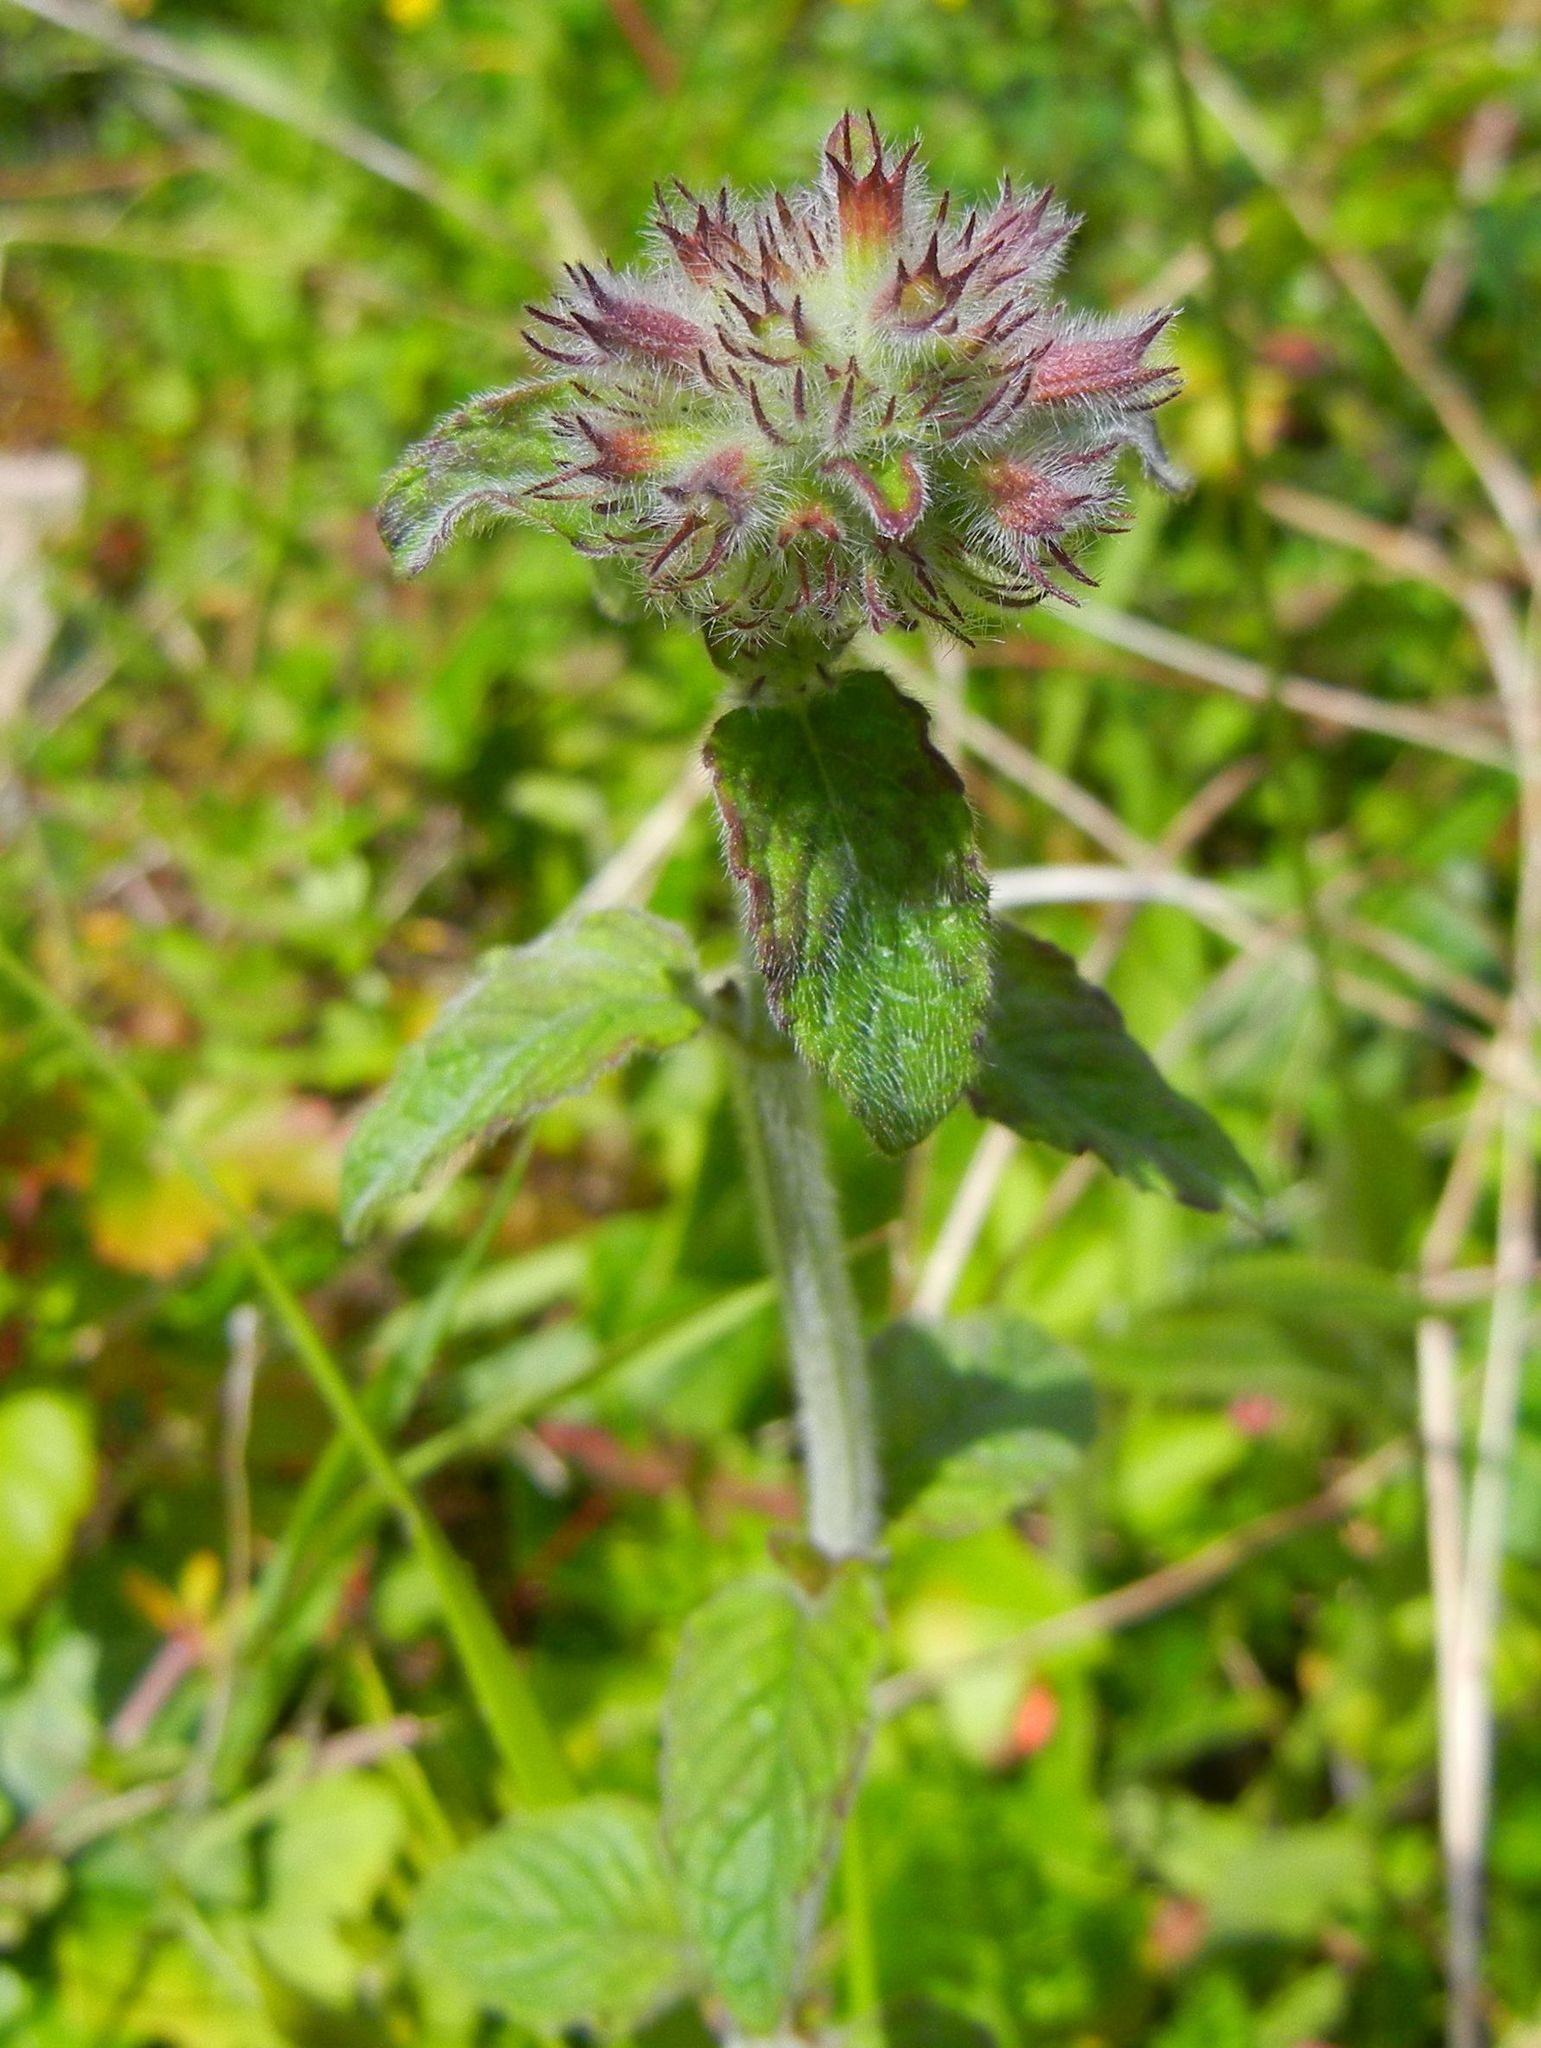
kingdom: Plantae
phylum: Tracheophyta
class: Magnoliopsida
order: Lamiales
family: Lamiaceae
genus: Clinopodium
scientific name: Clinopodium vulgare
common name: Wild basil
